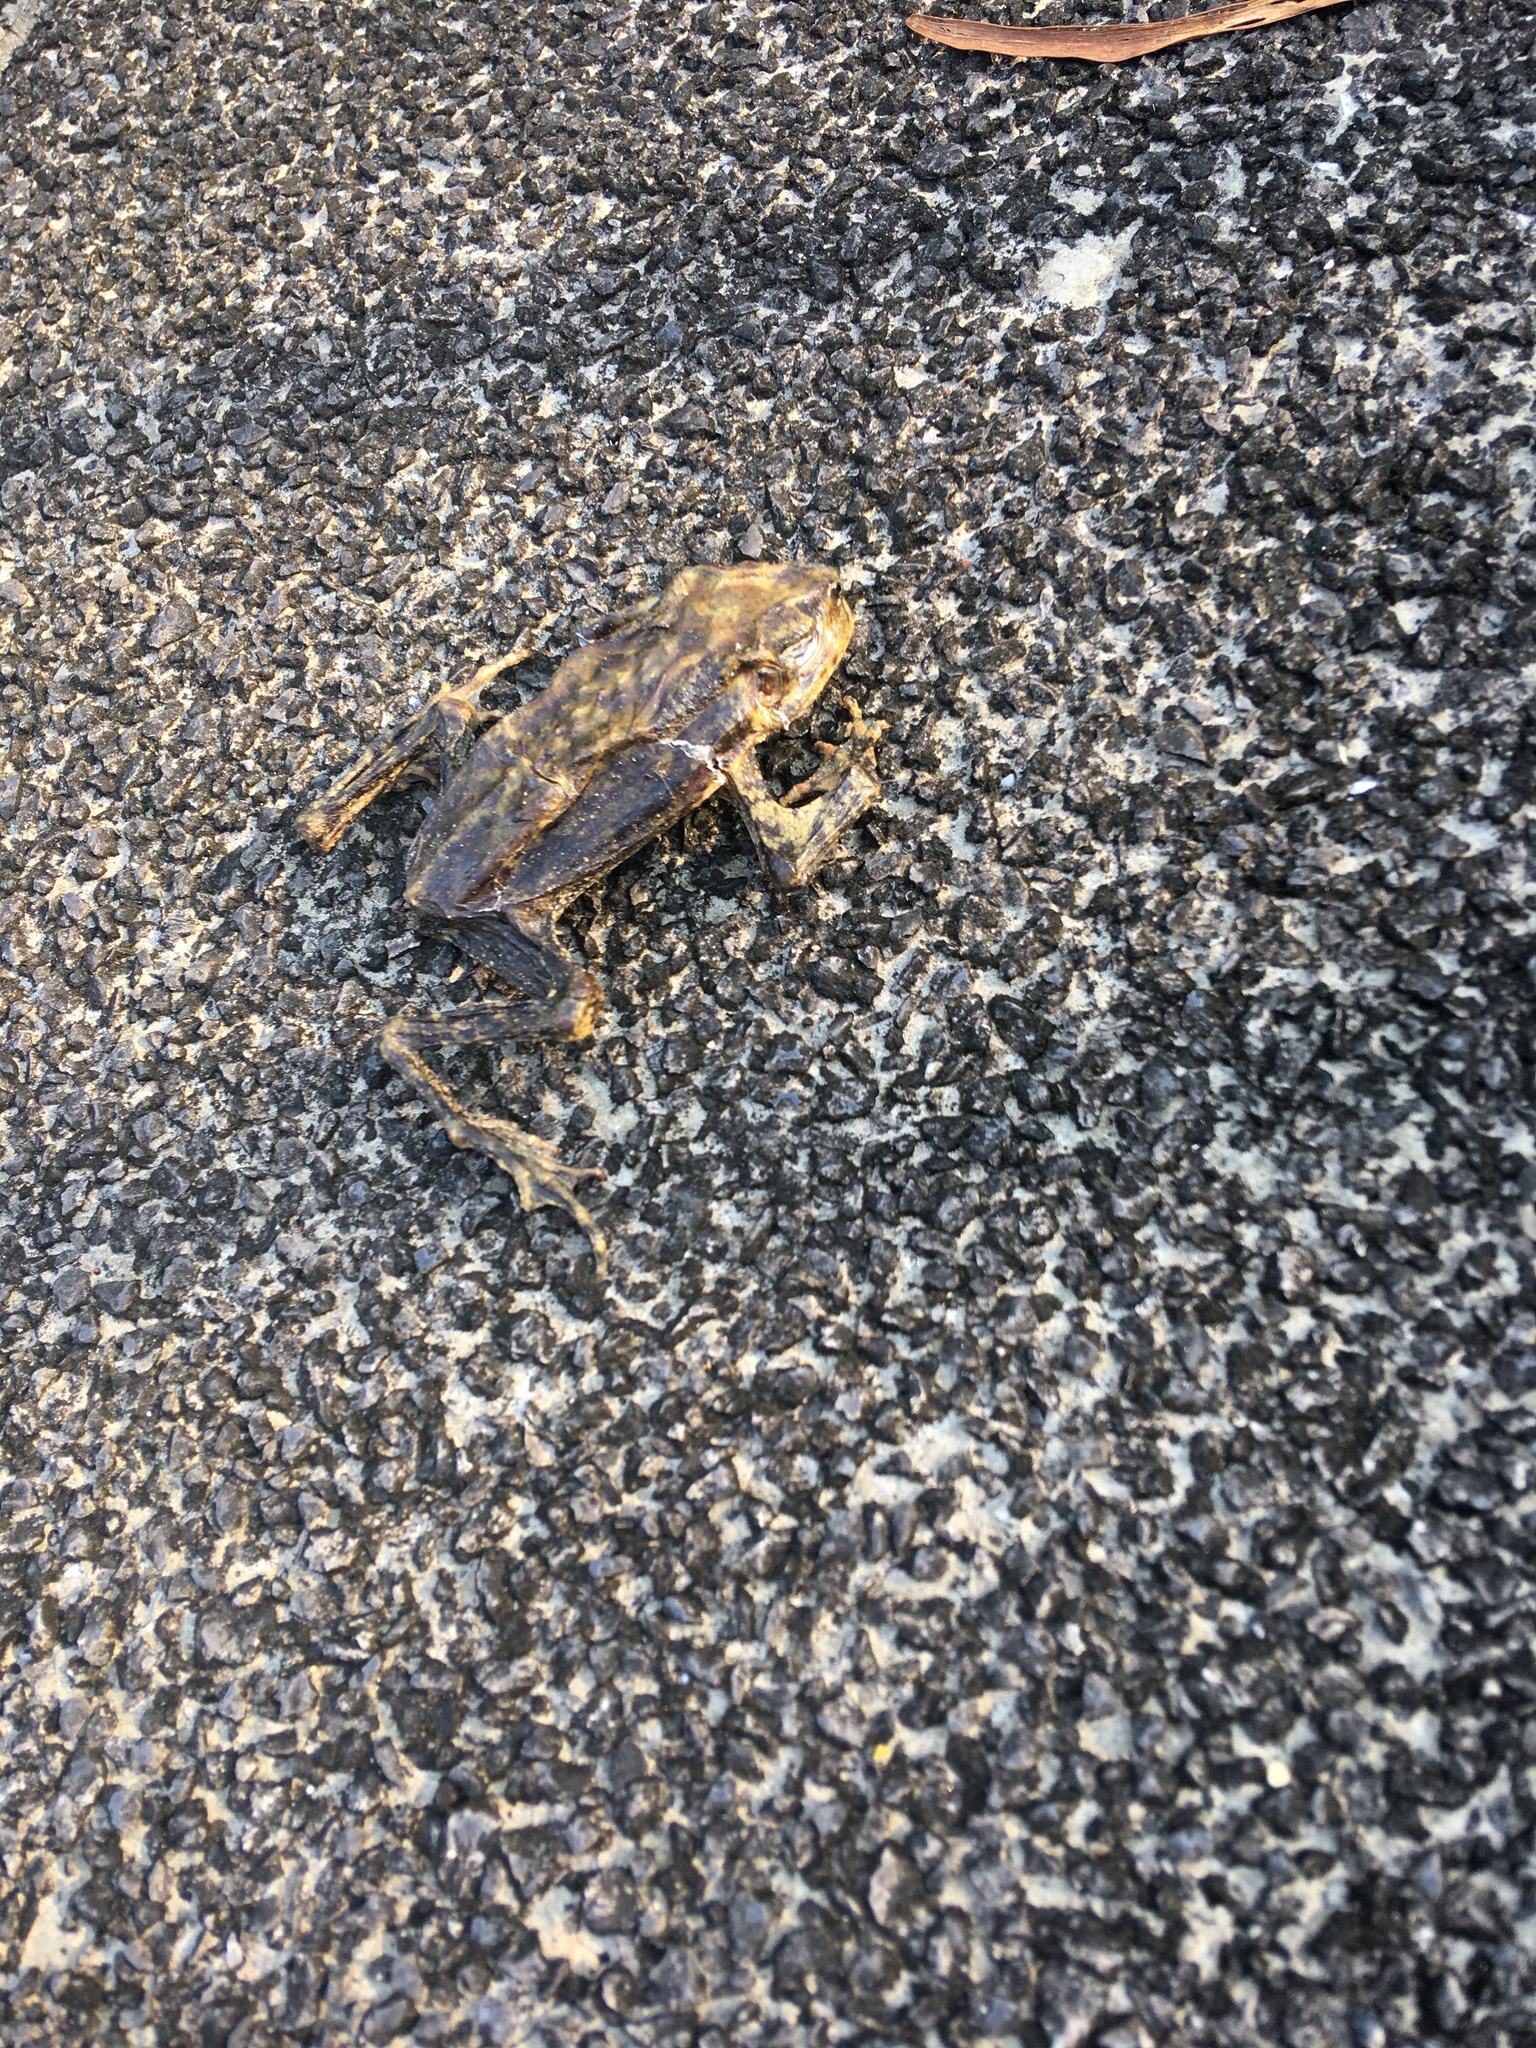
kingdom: Animalia
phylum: Chordata
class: Amphibia
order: Anura
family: Bufonidae
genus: Duttaphrynus
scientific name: Duttaphrynus melanostictus
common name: Common sunda toad
